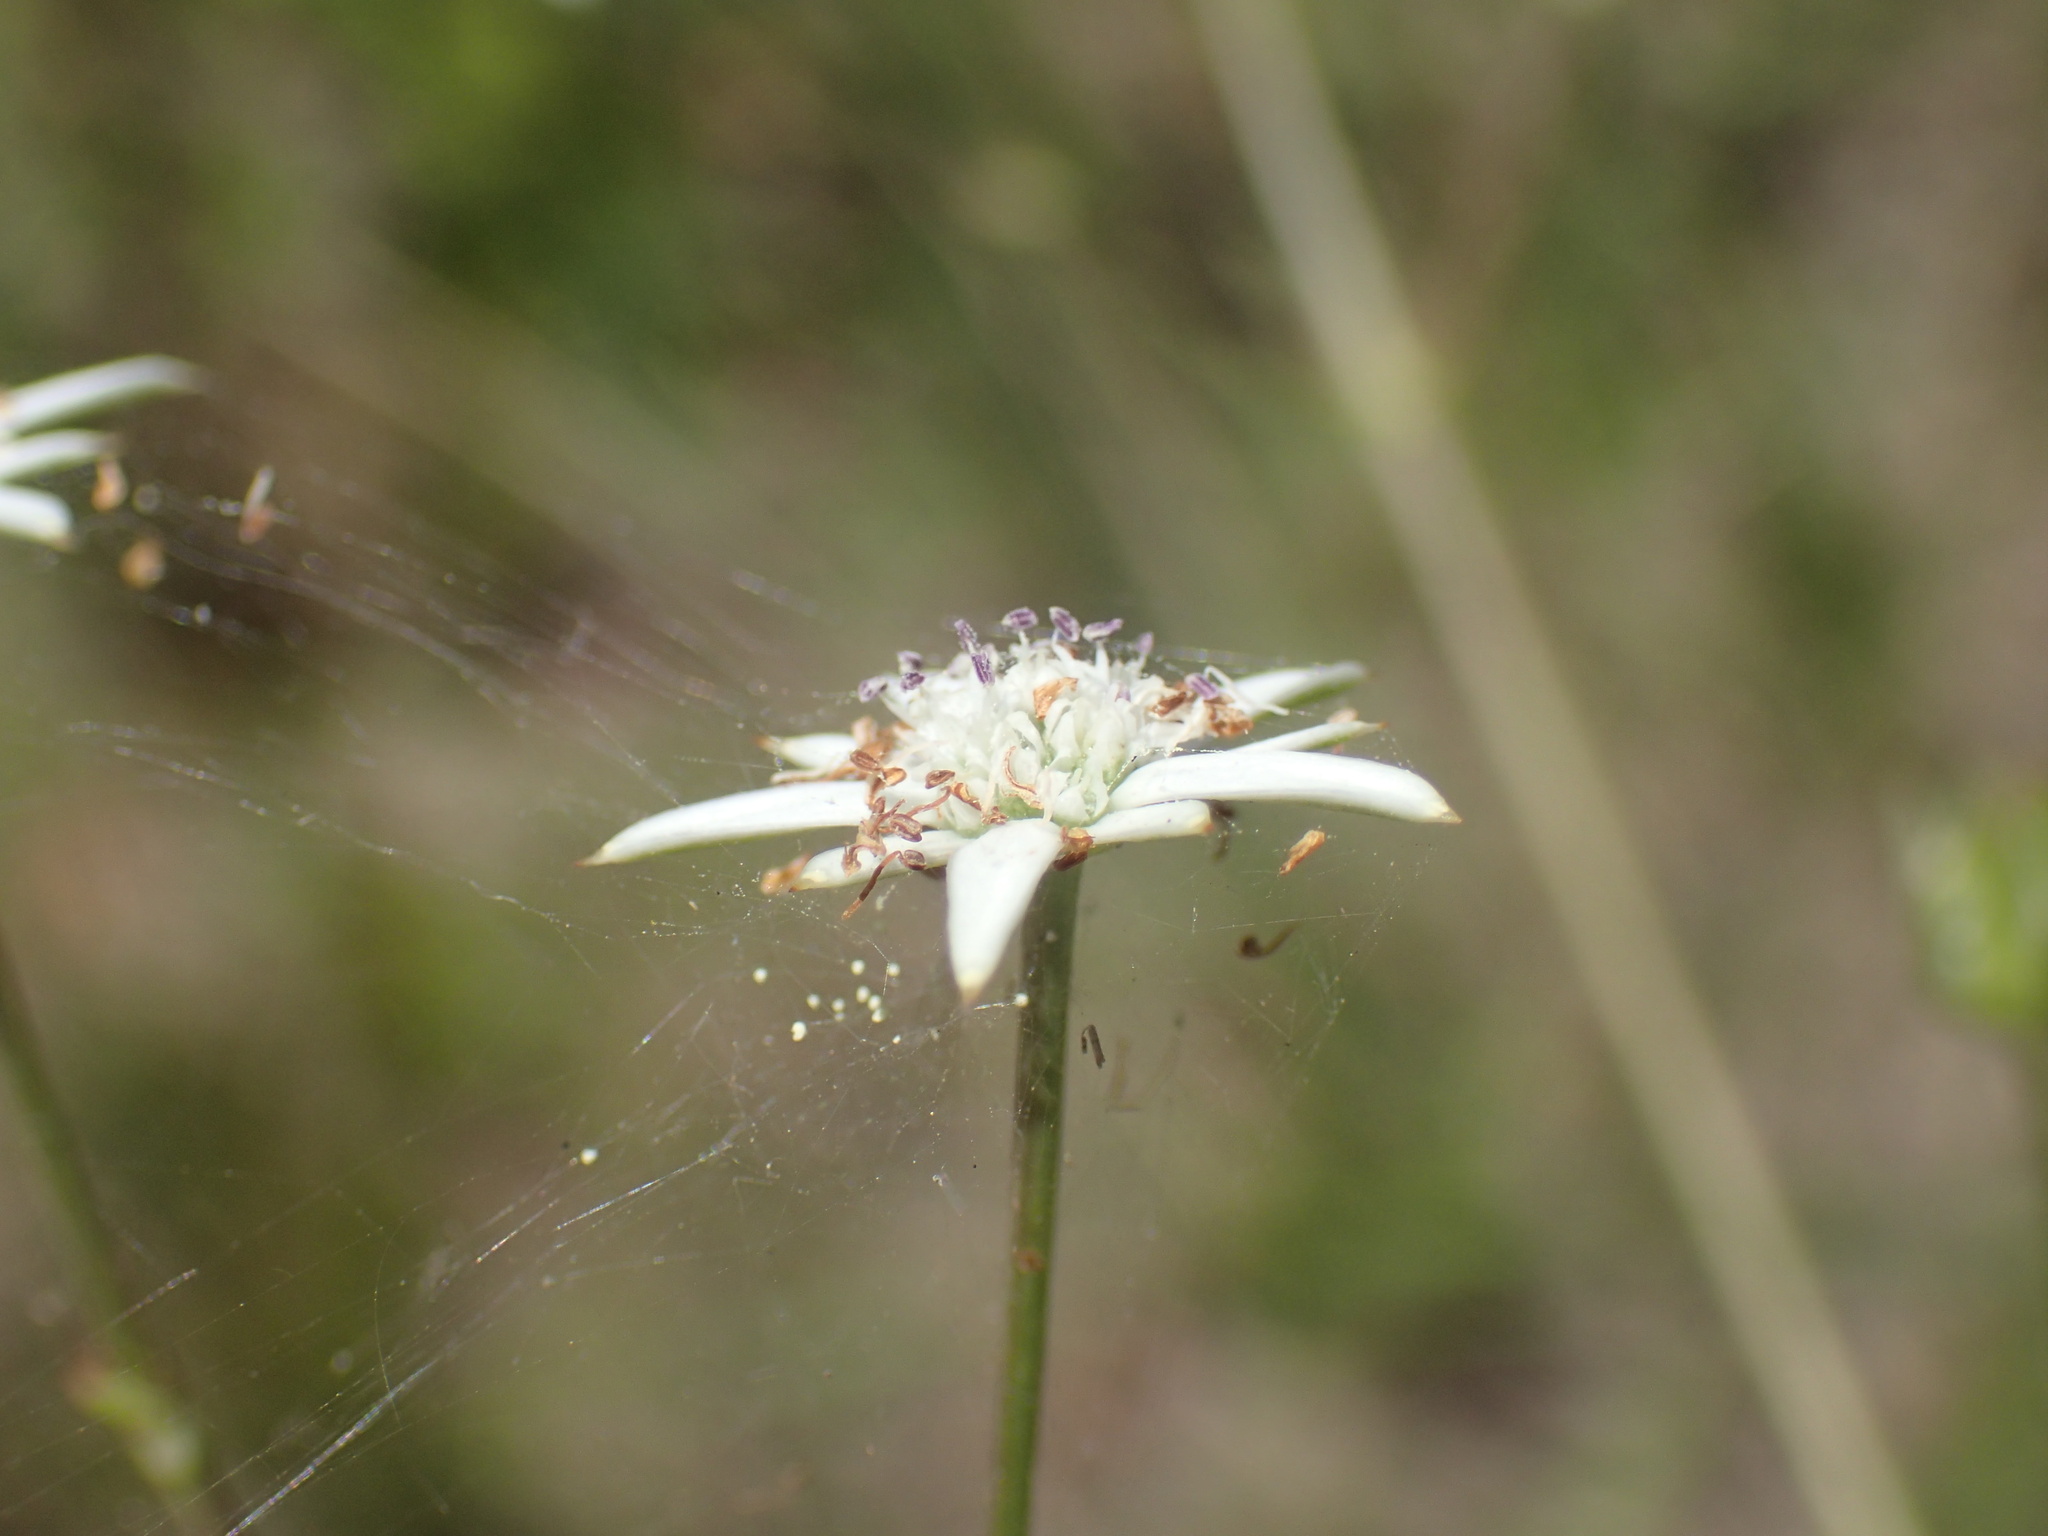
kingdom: Plantae
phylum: Tracheophyta
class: Magnoliopsida
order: Apiales
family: Apiaceae
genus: Alepidea
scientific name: Alepidea peduncularis
